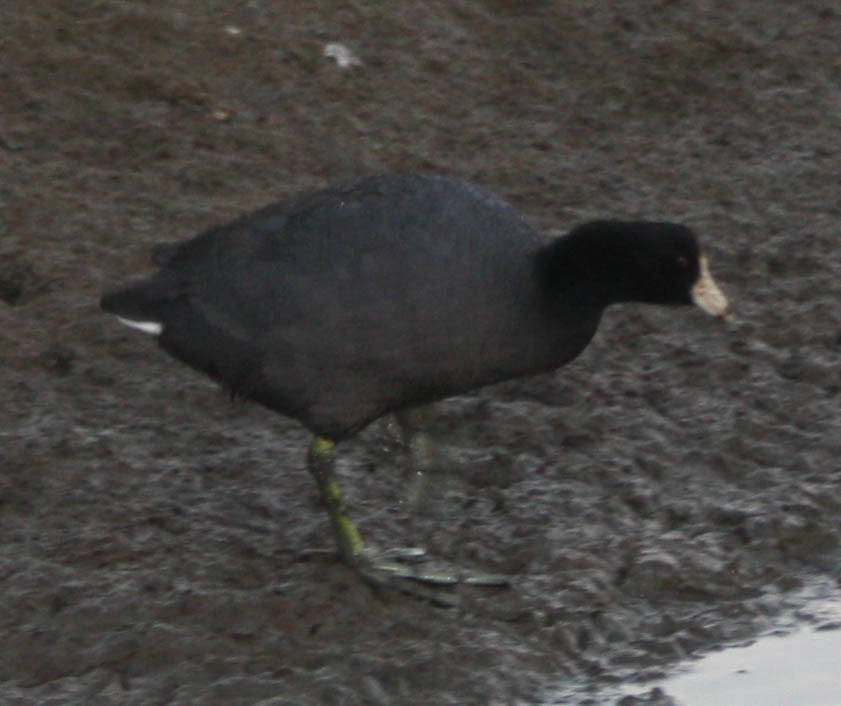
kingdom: Animalia
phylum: Chordata
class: Aves
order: Gruiformes
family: Rallidae
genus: Fulica
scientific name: Fulica americana
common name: American coot
